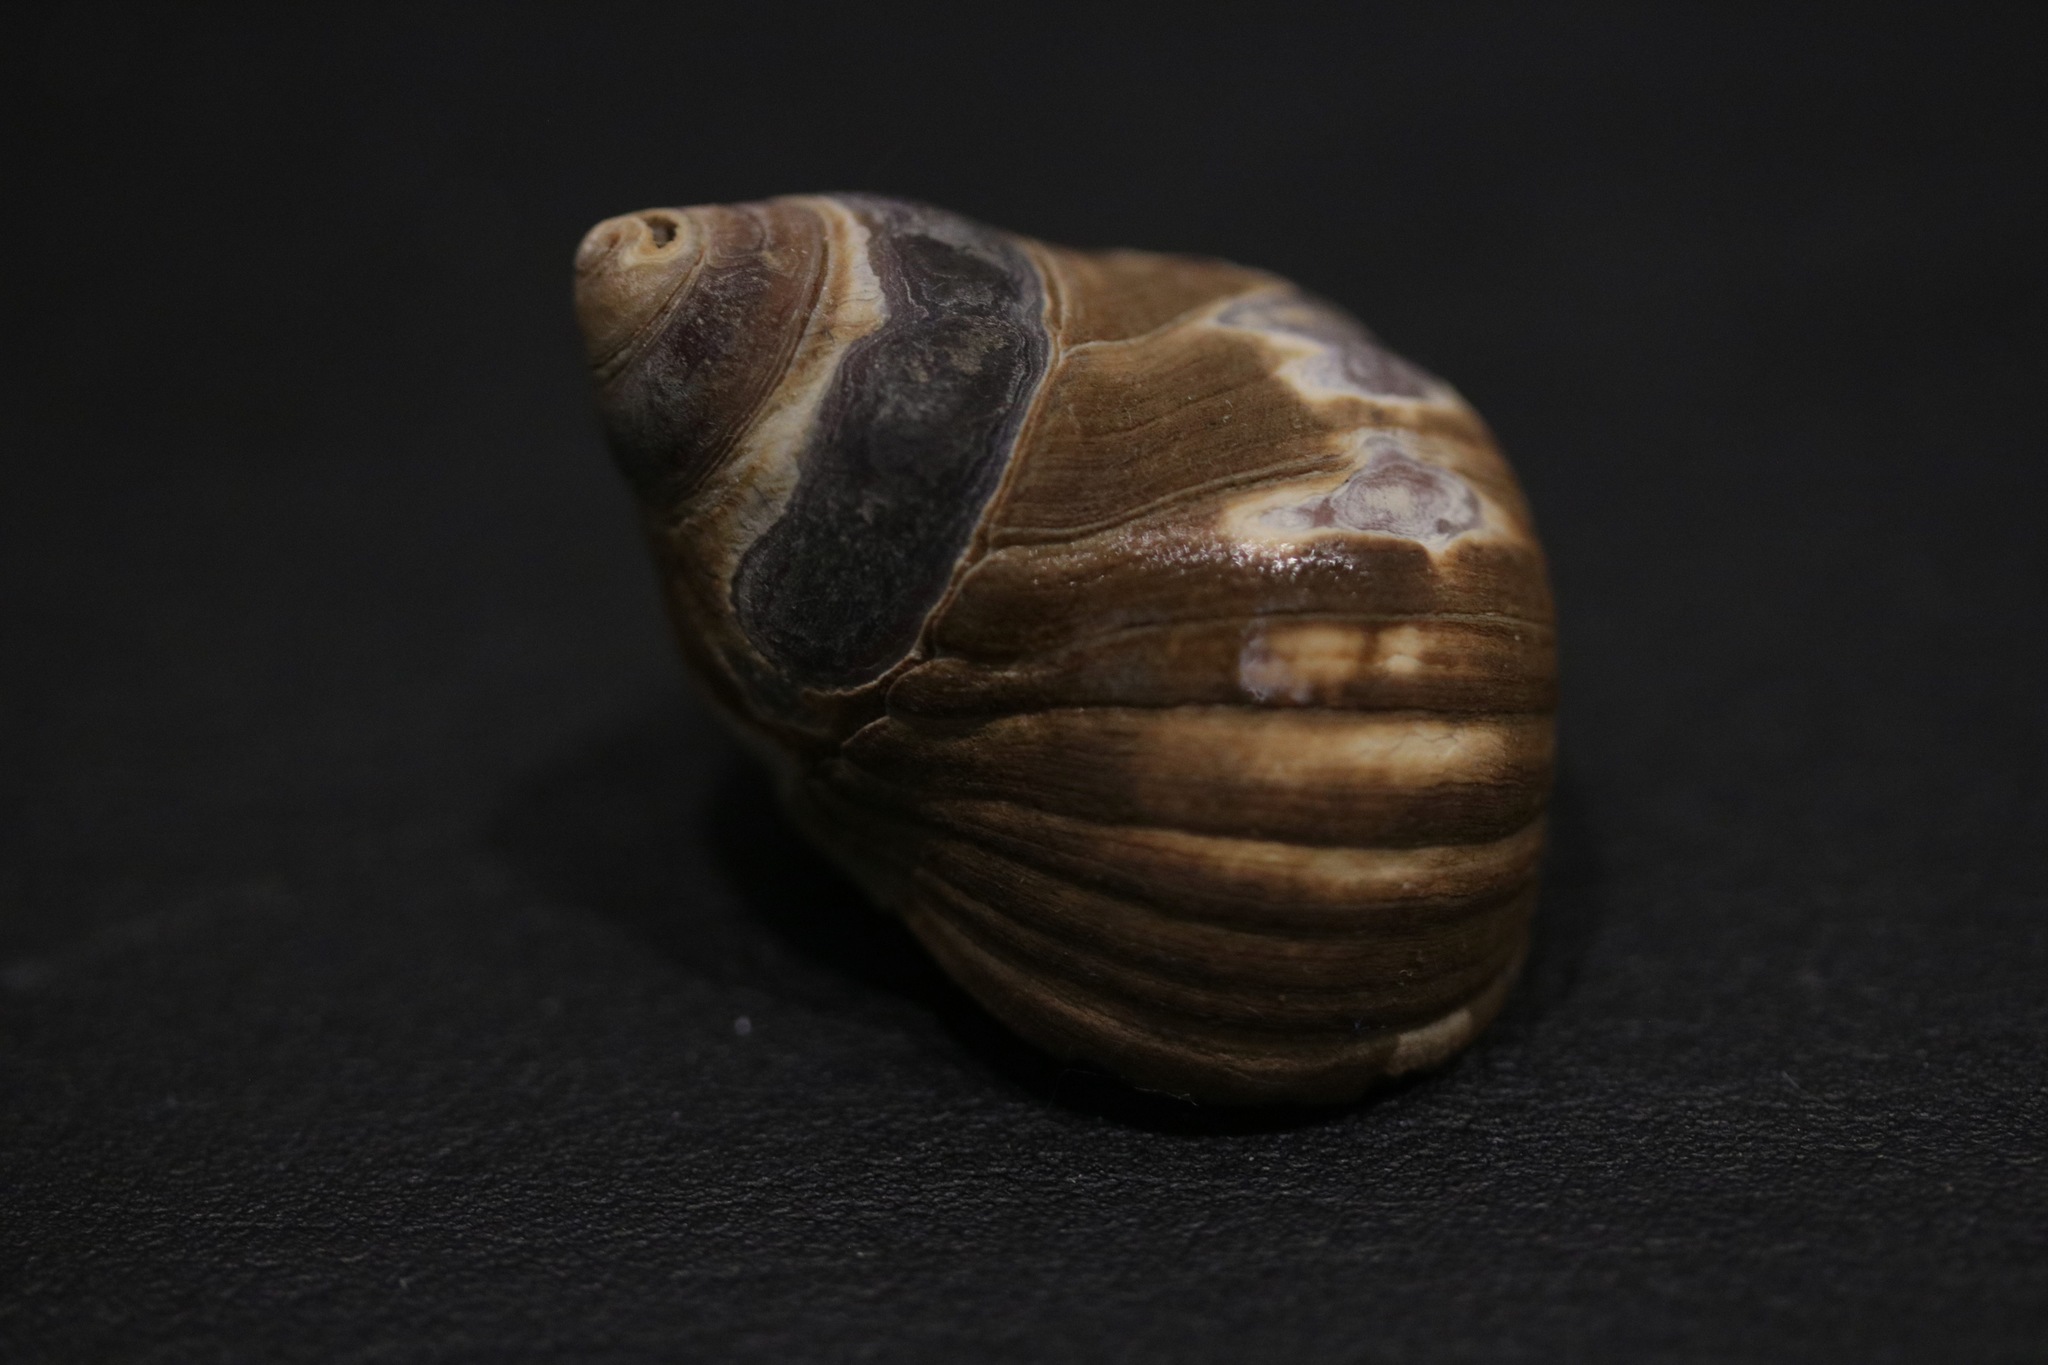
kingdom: Animalia
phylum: Mollusca
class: Gastropoda
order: Littorinimorpha
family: Littorinidae
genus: Littorina
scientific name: Littorina littorea
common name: Common periwinkle
